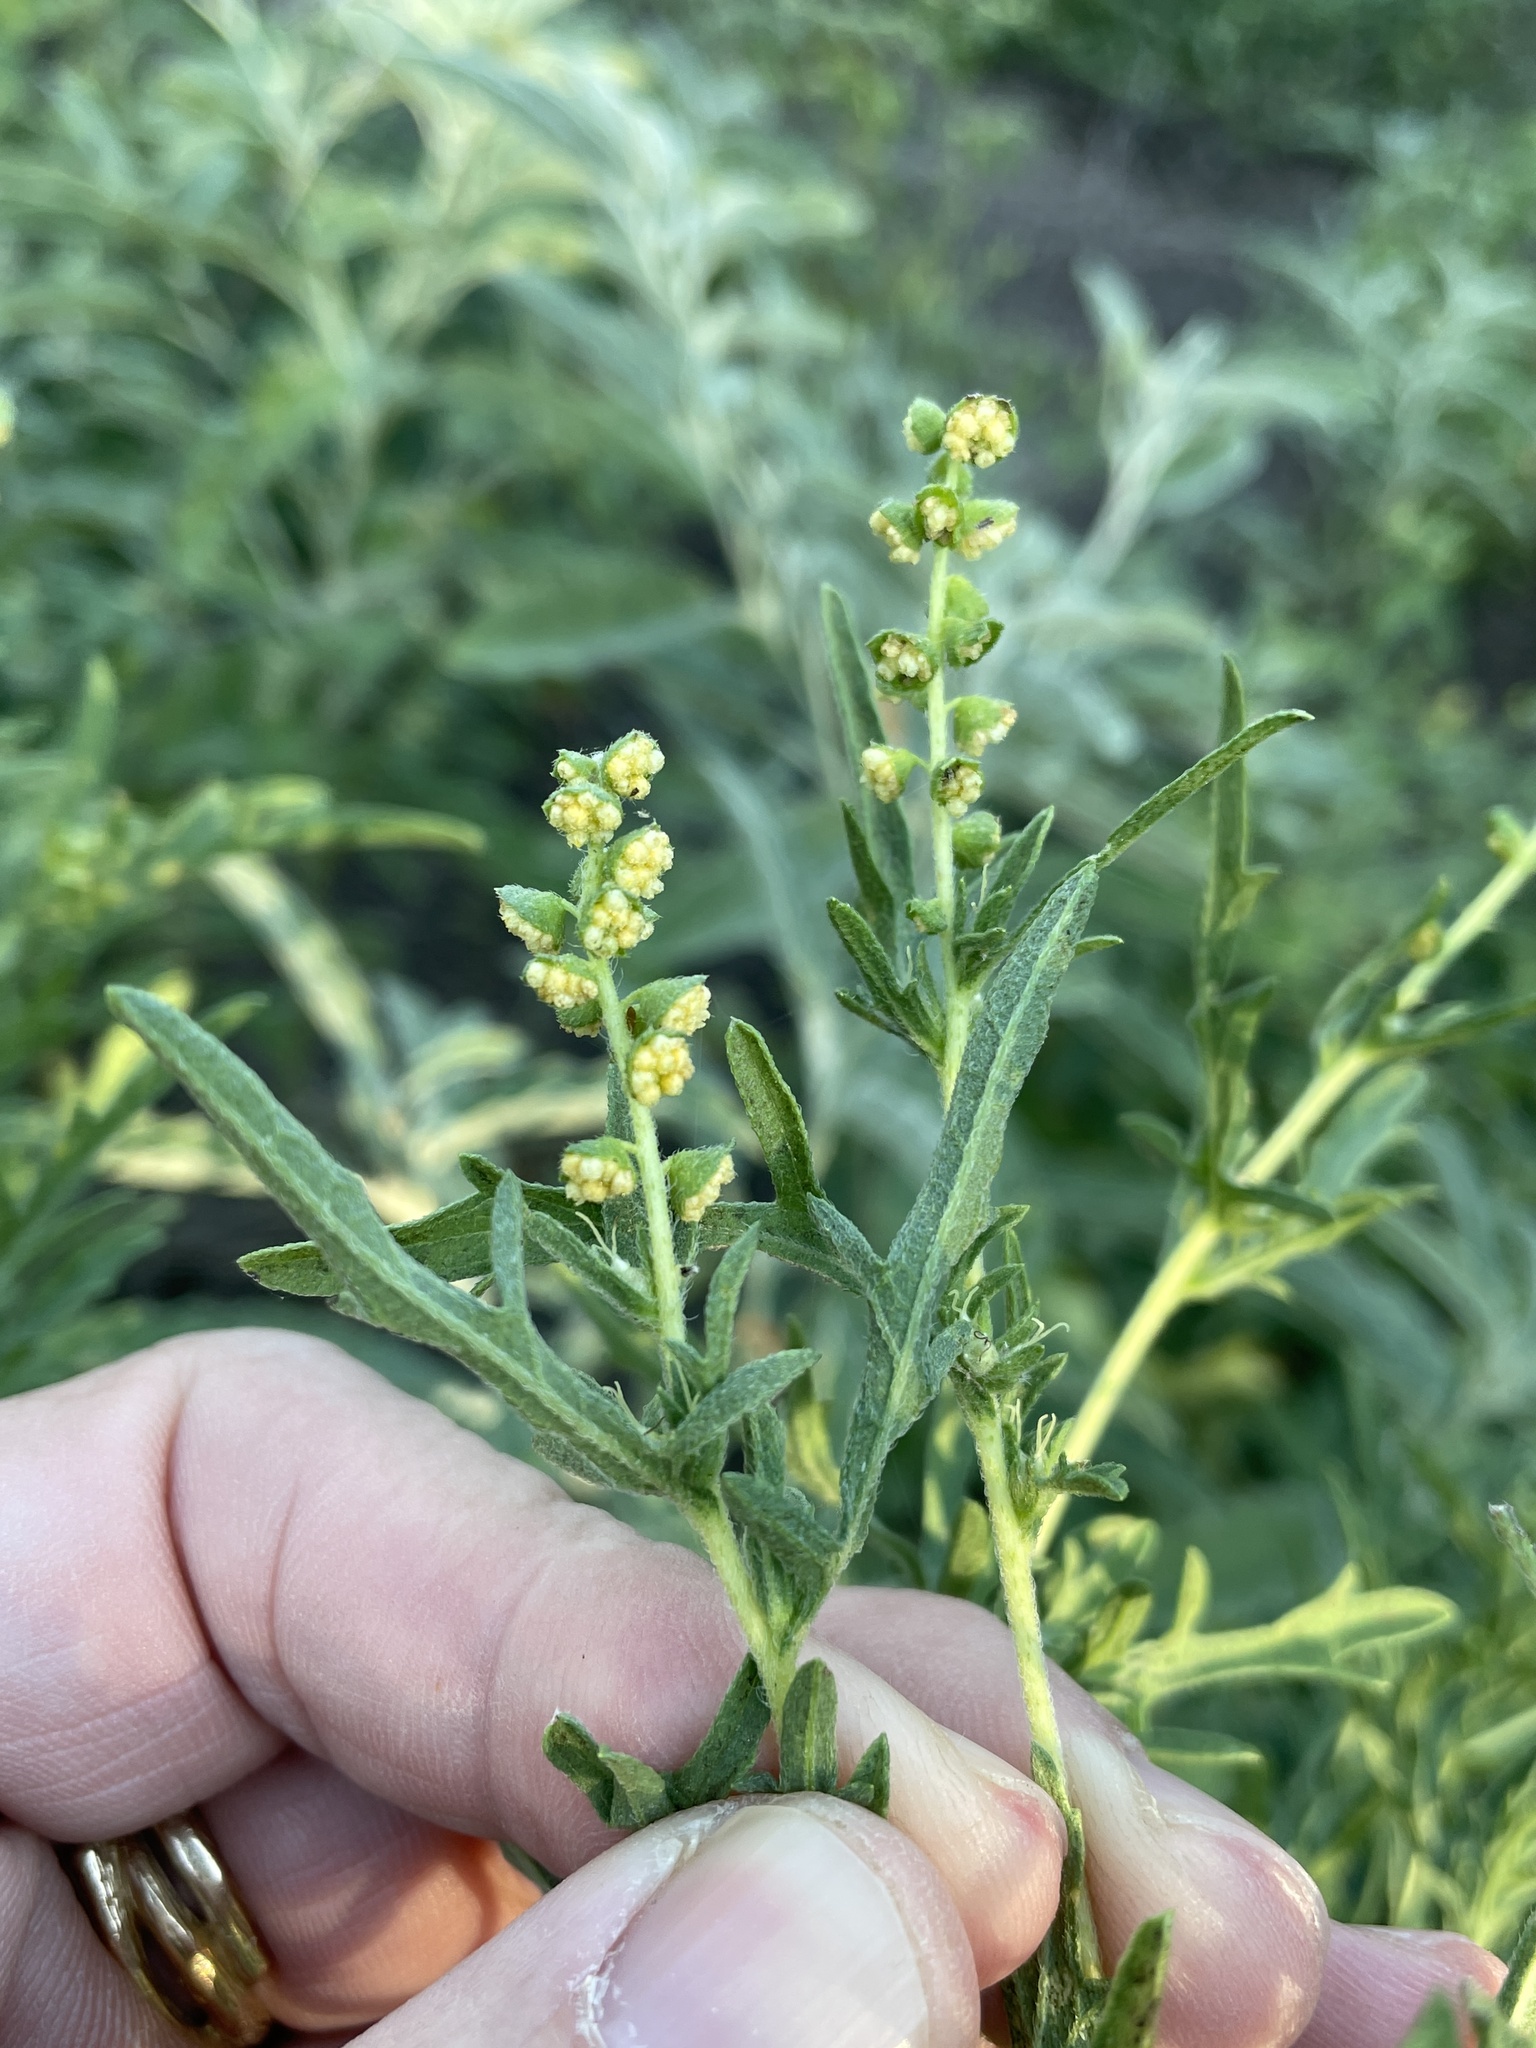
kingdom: Plantae
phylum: Tracheophyta
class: Magnoliopsida
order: Asterales
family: Asteraceae
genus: Ambrosia
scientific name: Ambrosia psilostachya
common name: Perennial ragweed
